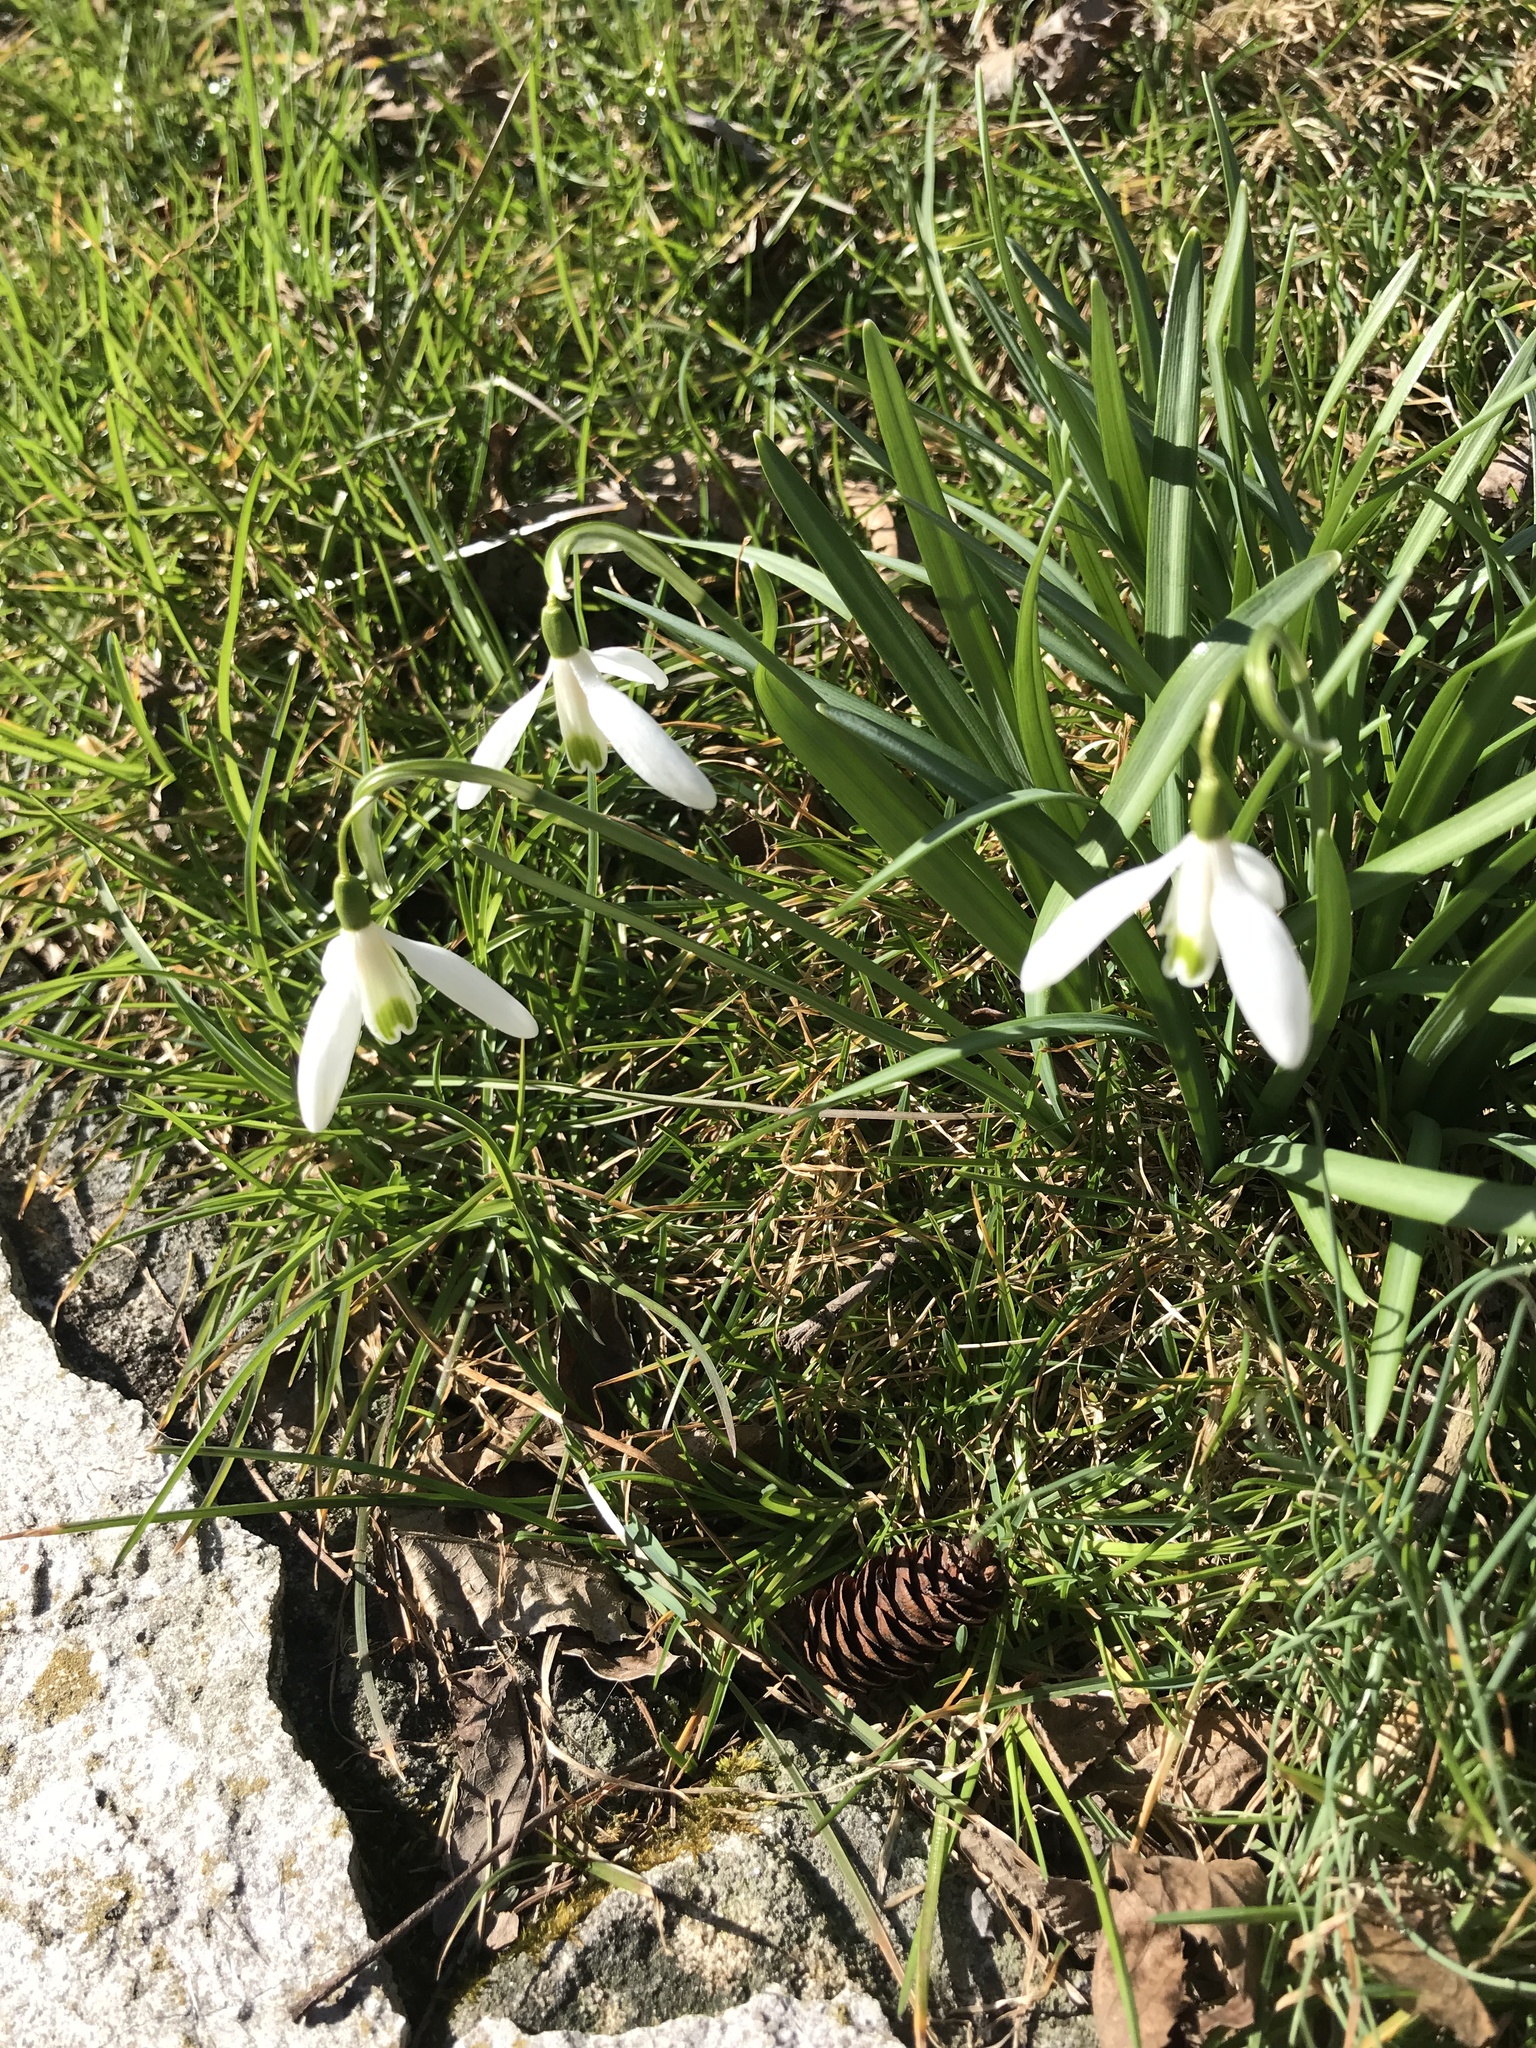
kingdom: Plantae
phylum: Tracheophyta
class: Liliopsida
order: Asparagales
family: Amaryllidaceae
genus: Galanthus
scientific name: Galanthus nivalis
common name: Snowdrop
